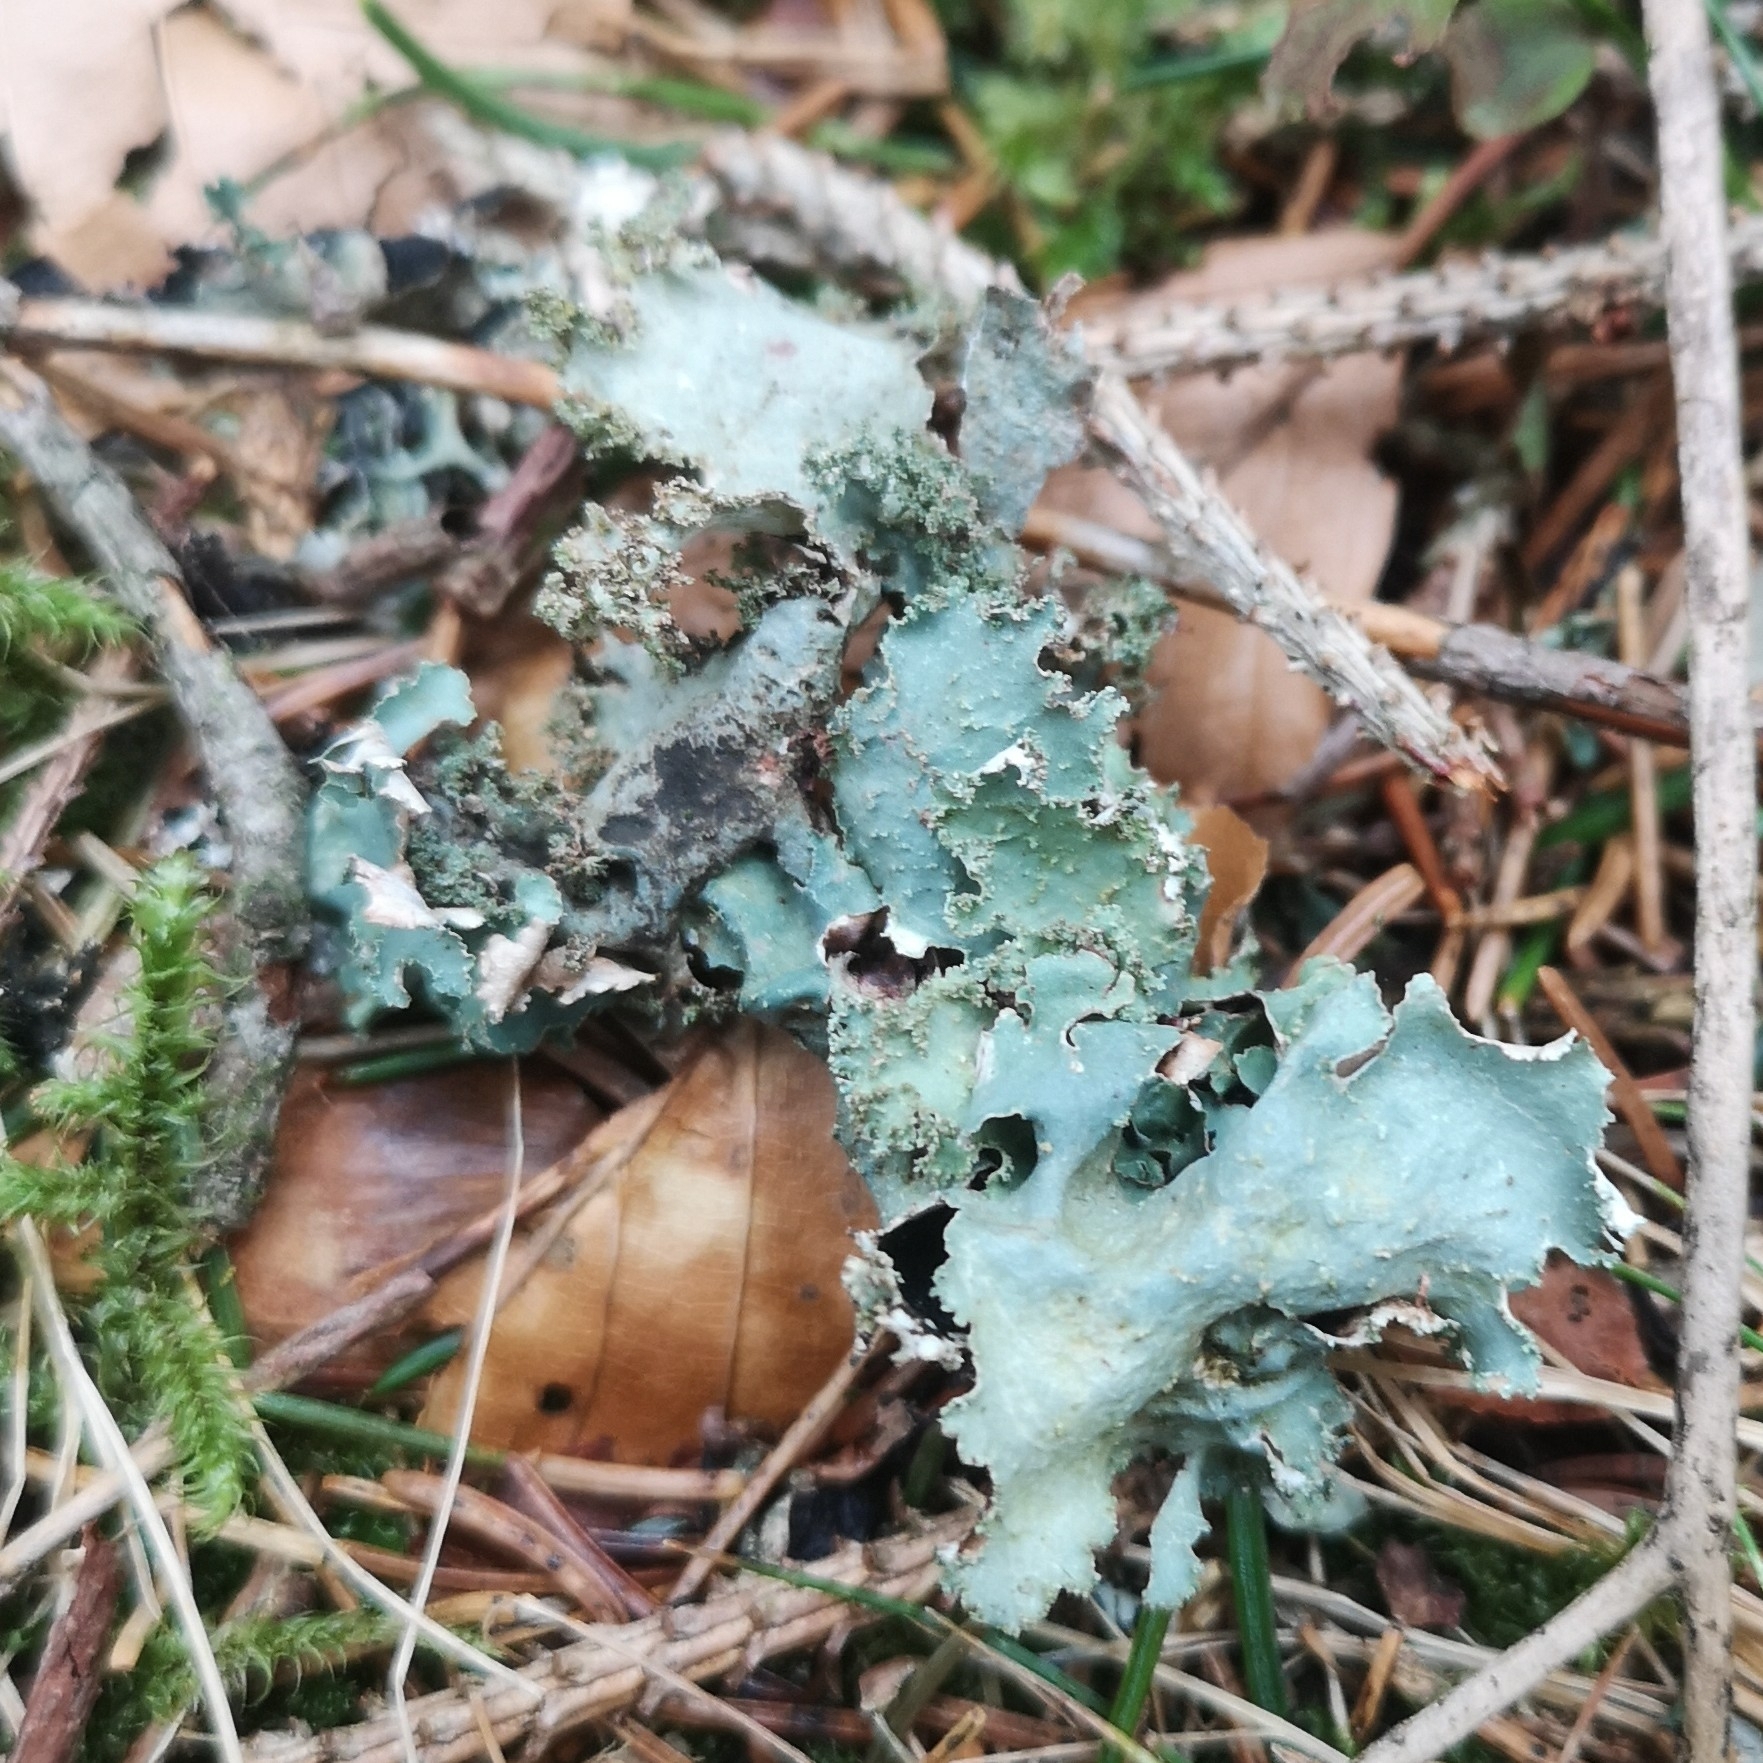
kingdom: Fungi
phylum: Ascomycota
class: Lecanoromycetes
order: Lecanorales
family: Parmeliaceae
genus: Platismatia
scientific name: Platismatia glauca
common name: Varied rag lichen
